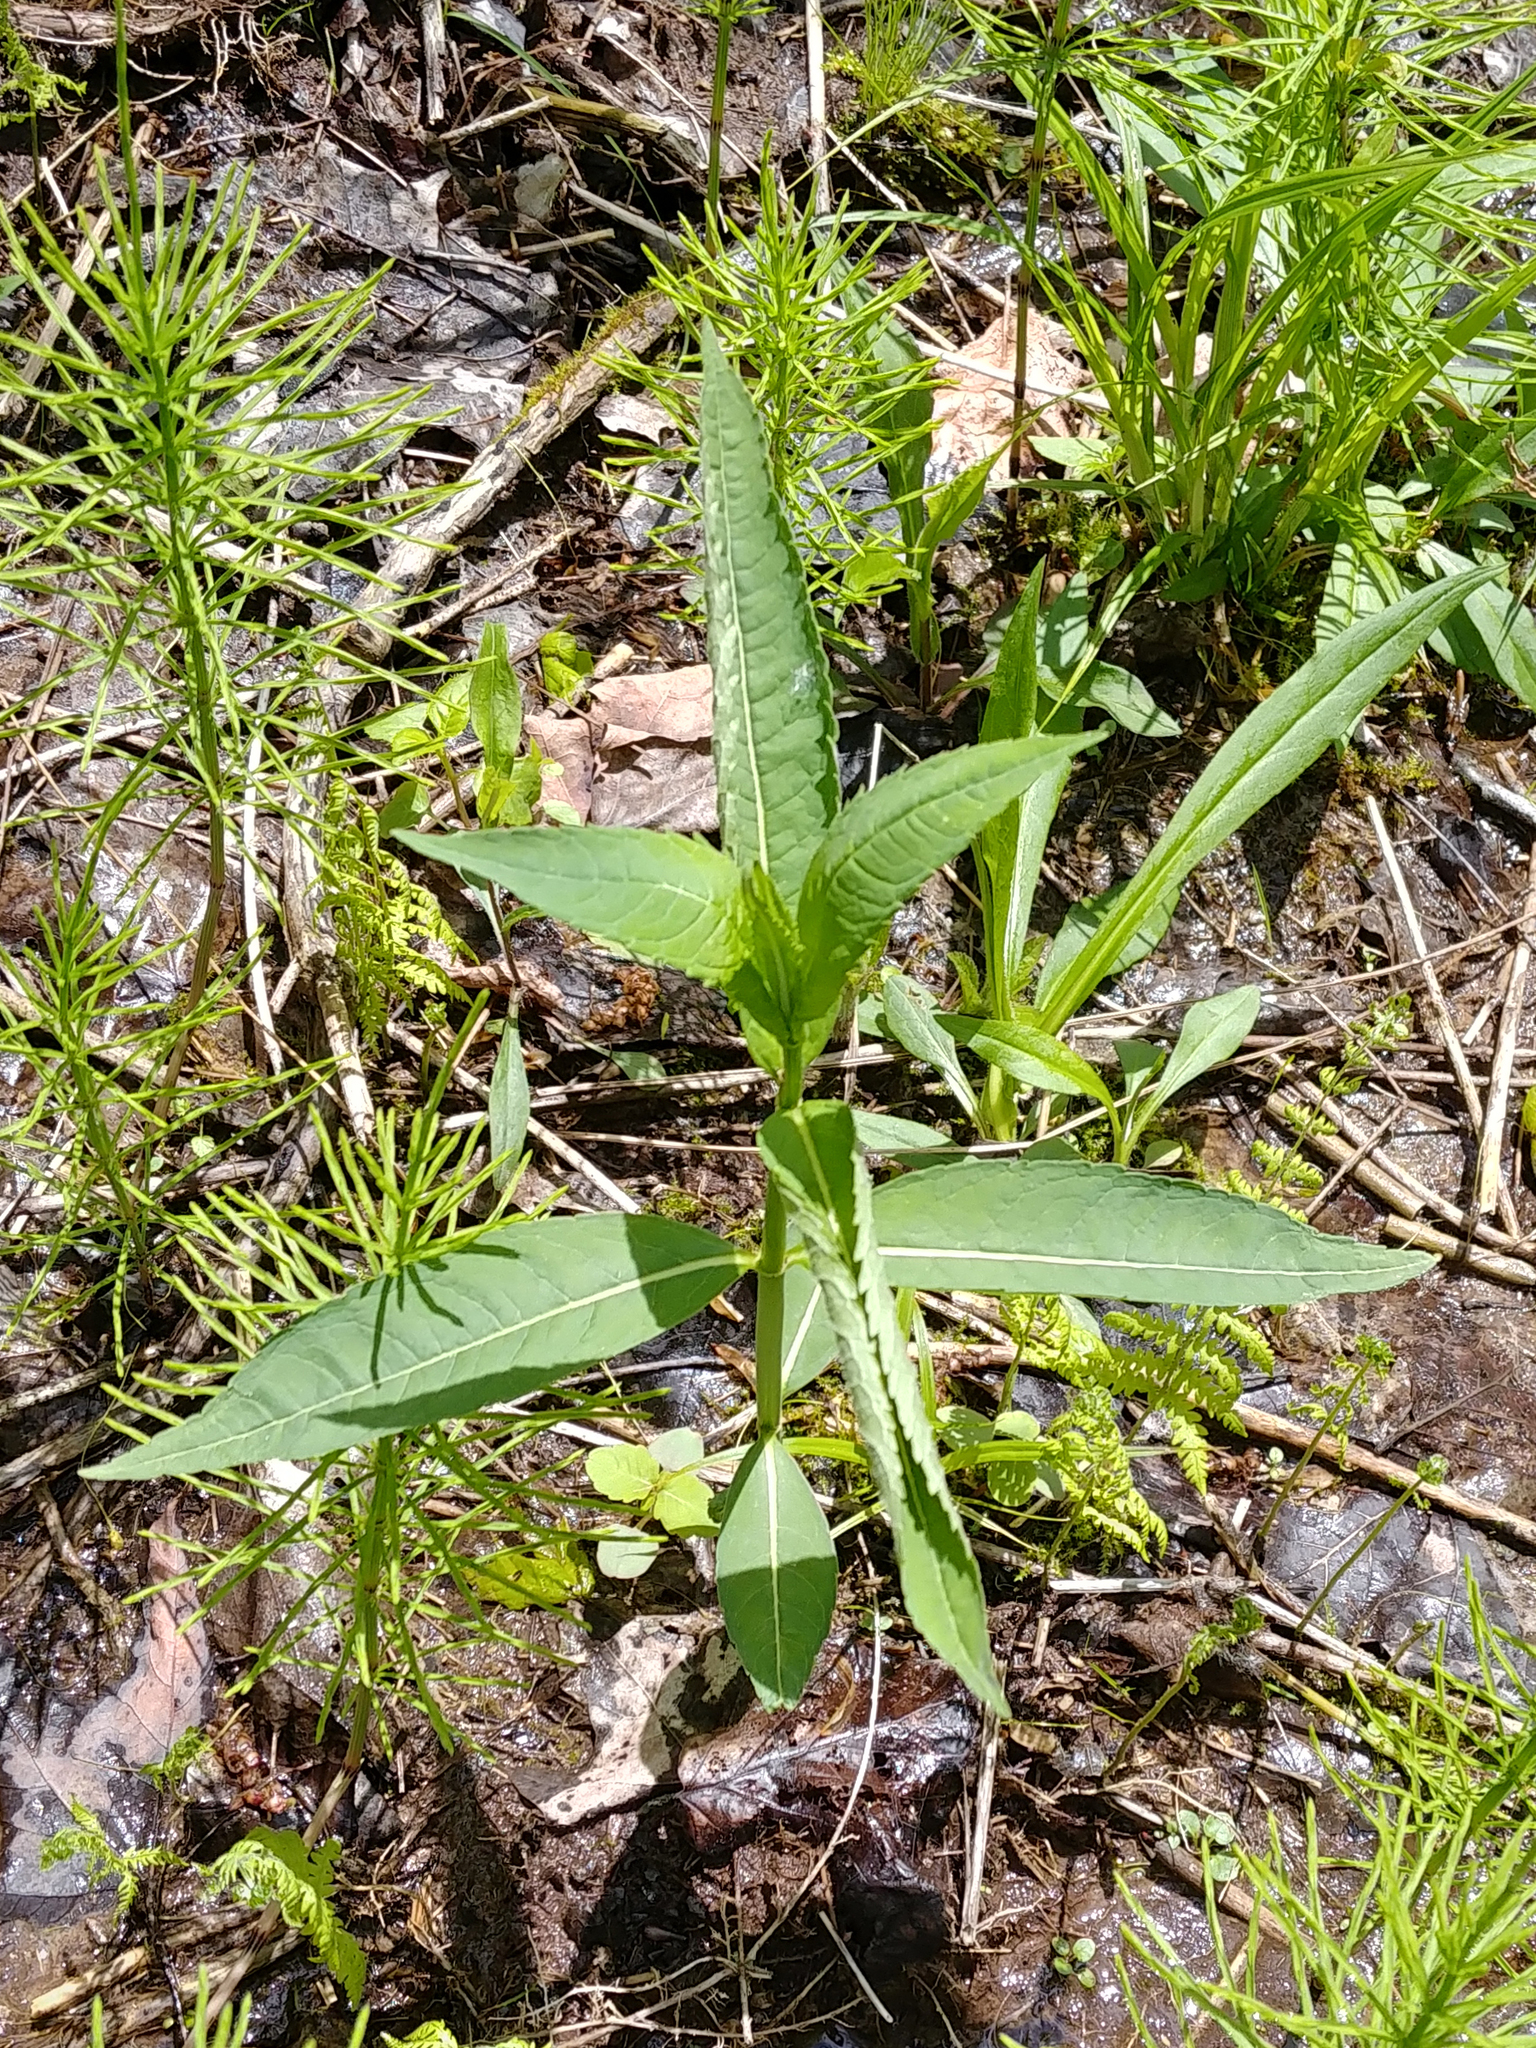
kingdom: Plantae
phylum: Tracheophyta
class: Magnoliopsida
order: Lamiales
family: Plantaginaceae
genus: Chelone
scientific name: Chelone glabra
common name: Snakehead
